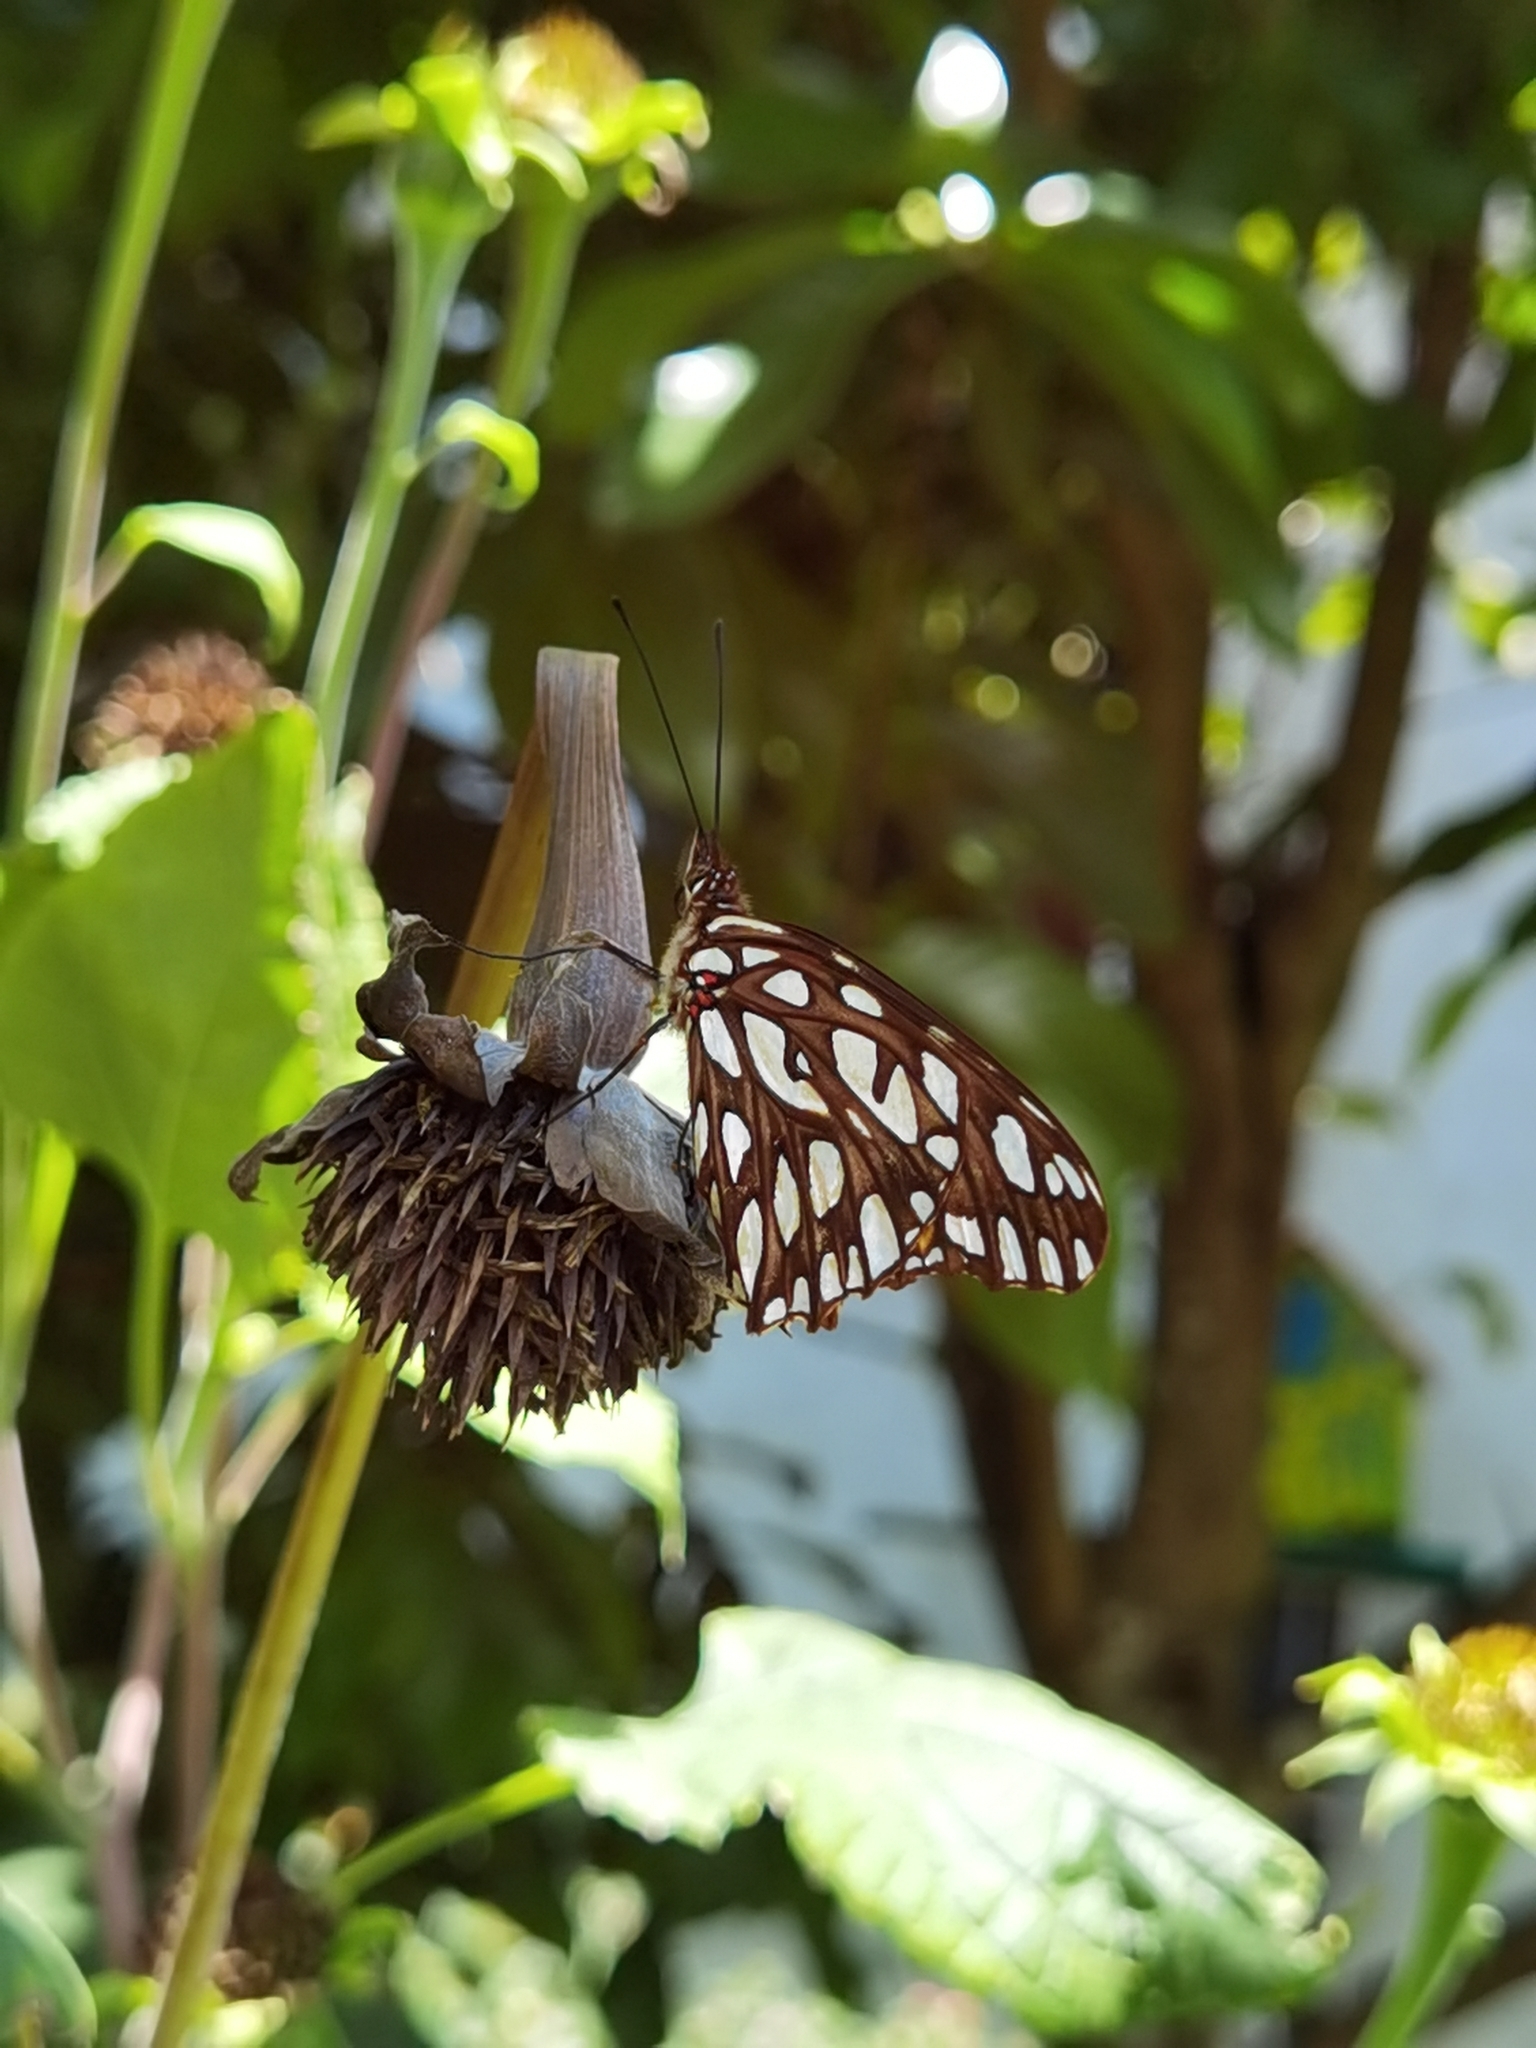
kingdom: Animalia
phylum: Arthropoda
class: Insecta
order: Lepidoptera
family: Nymphalidae
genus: Dione
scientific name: Dione juno
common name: Juno silverspot
